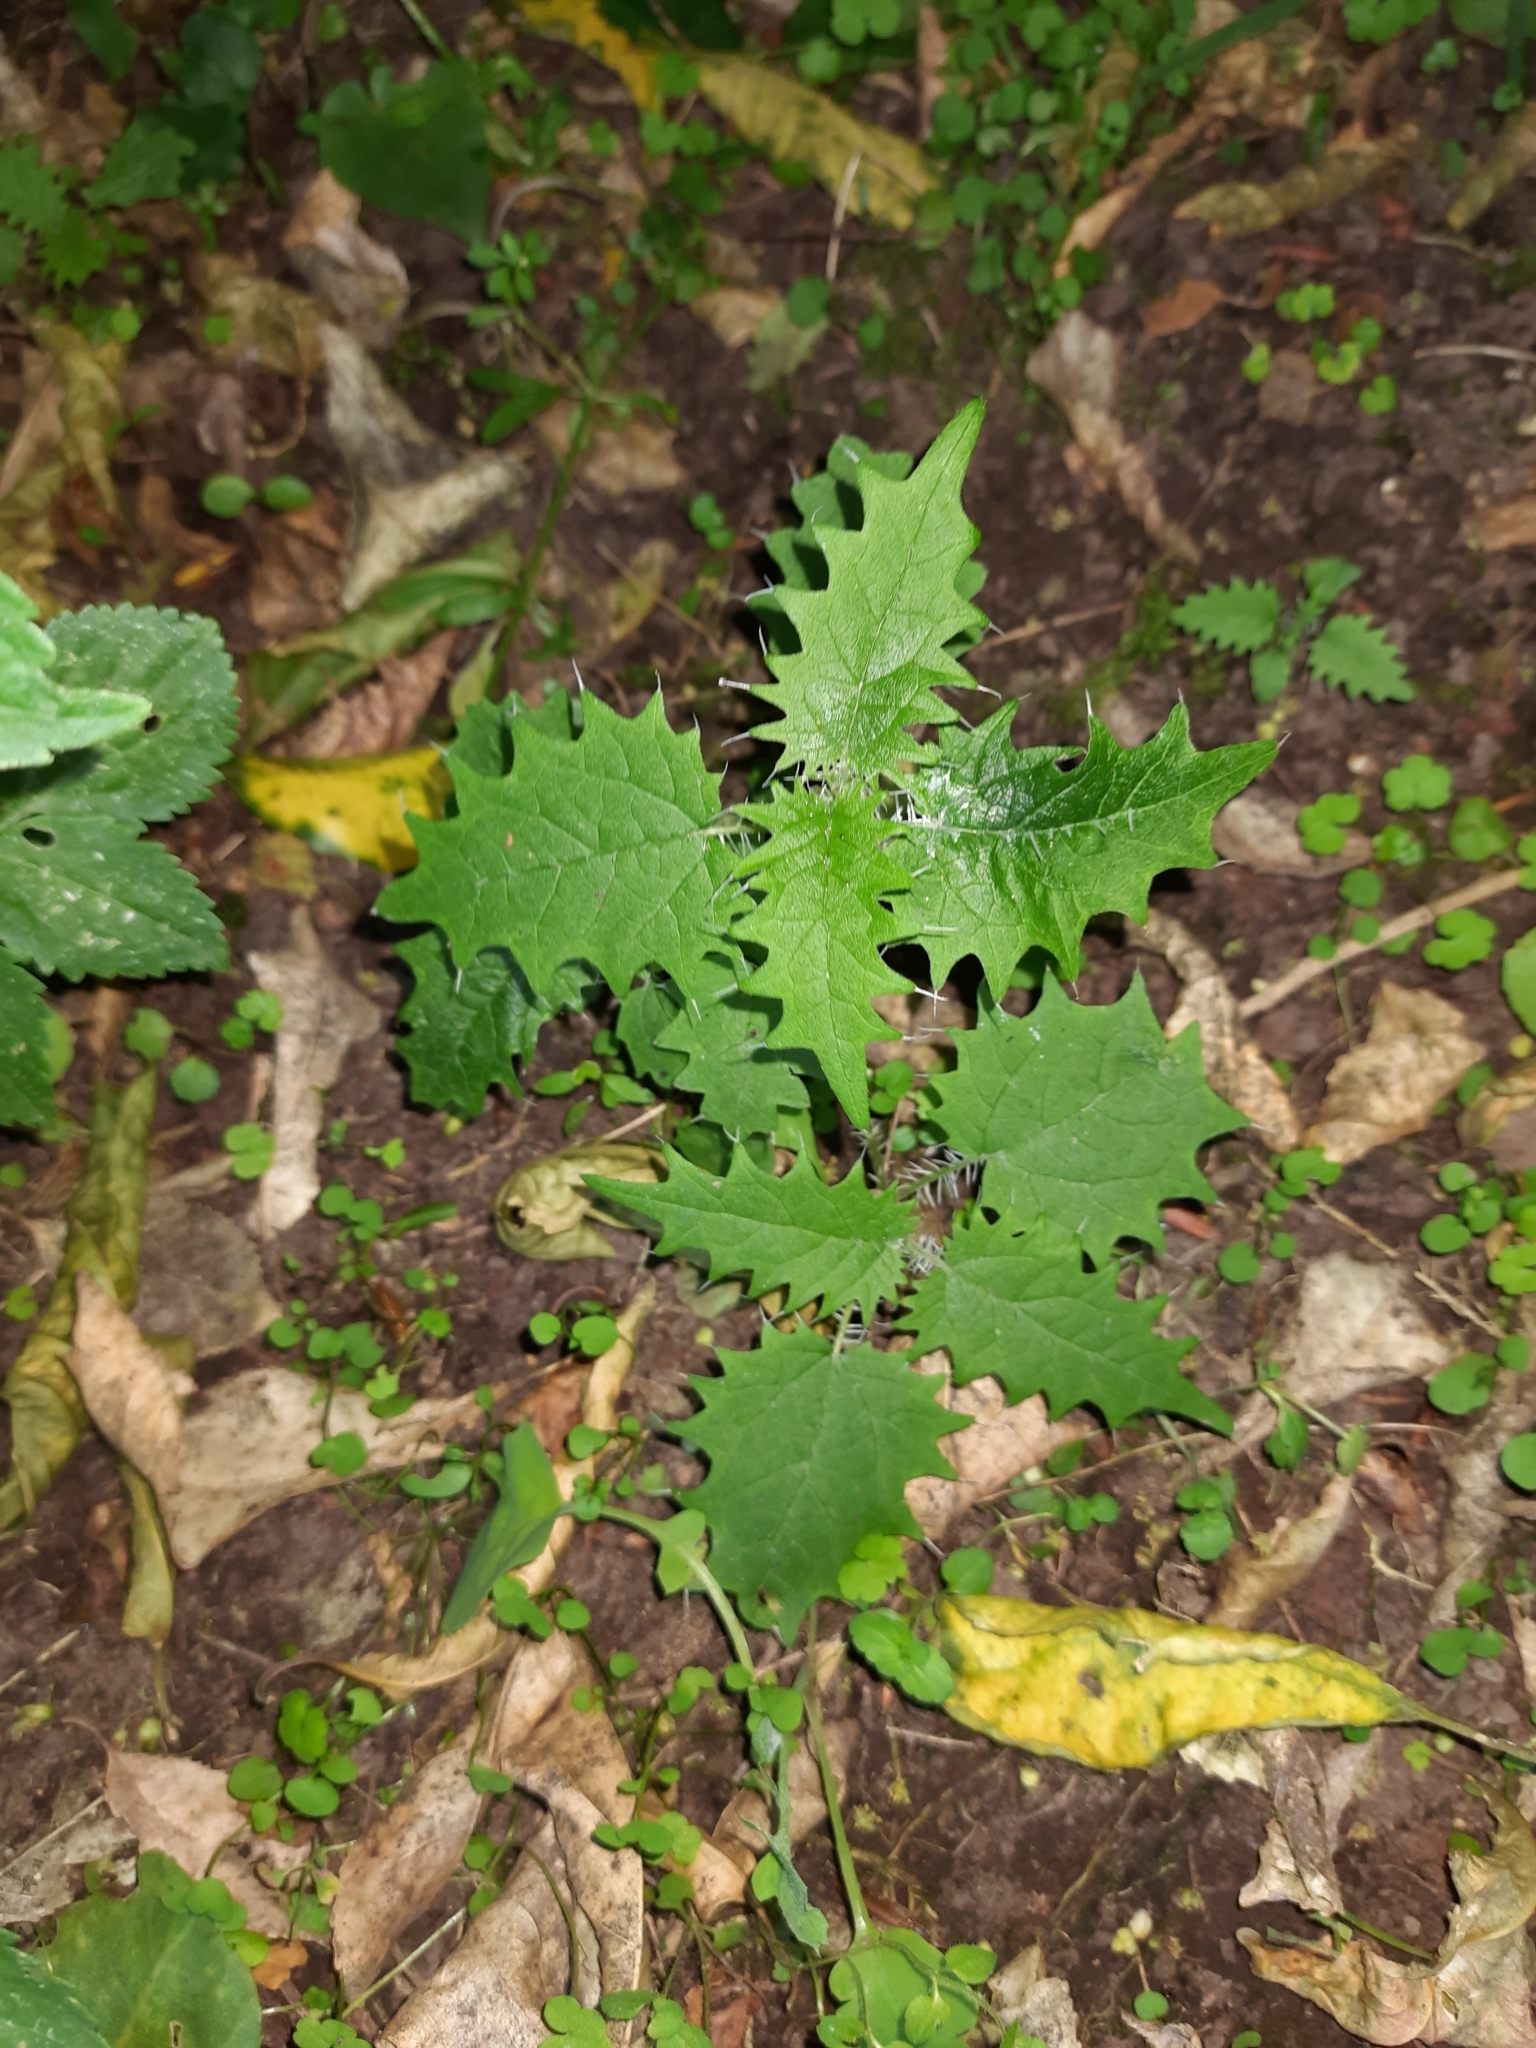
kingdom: Plantae
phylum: Tracheophyta
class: Magnoliopsida
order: Rosales
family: Urticaceae
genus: Urtica
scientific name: Urtica ferox
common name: Tree nettle
